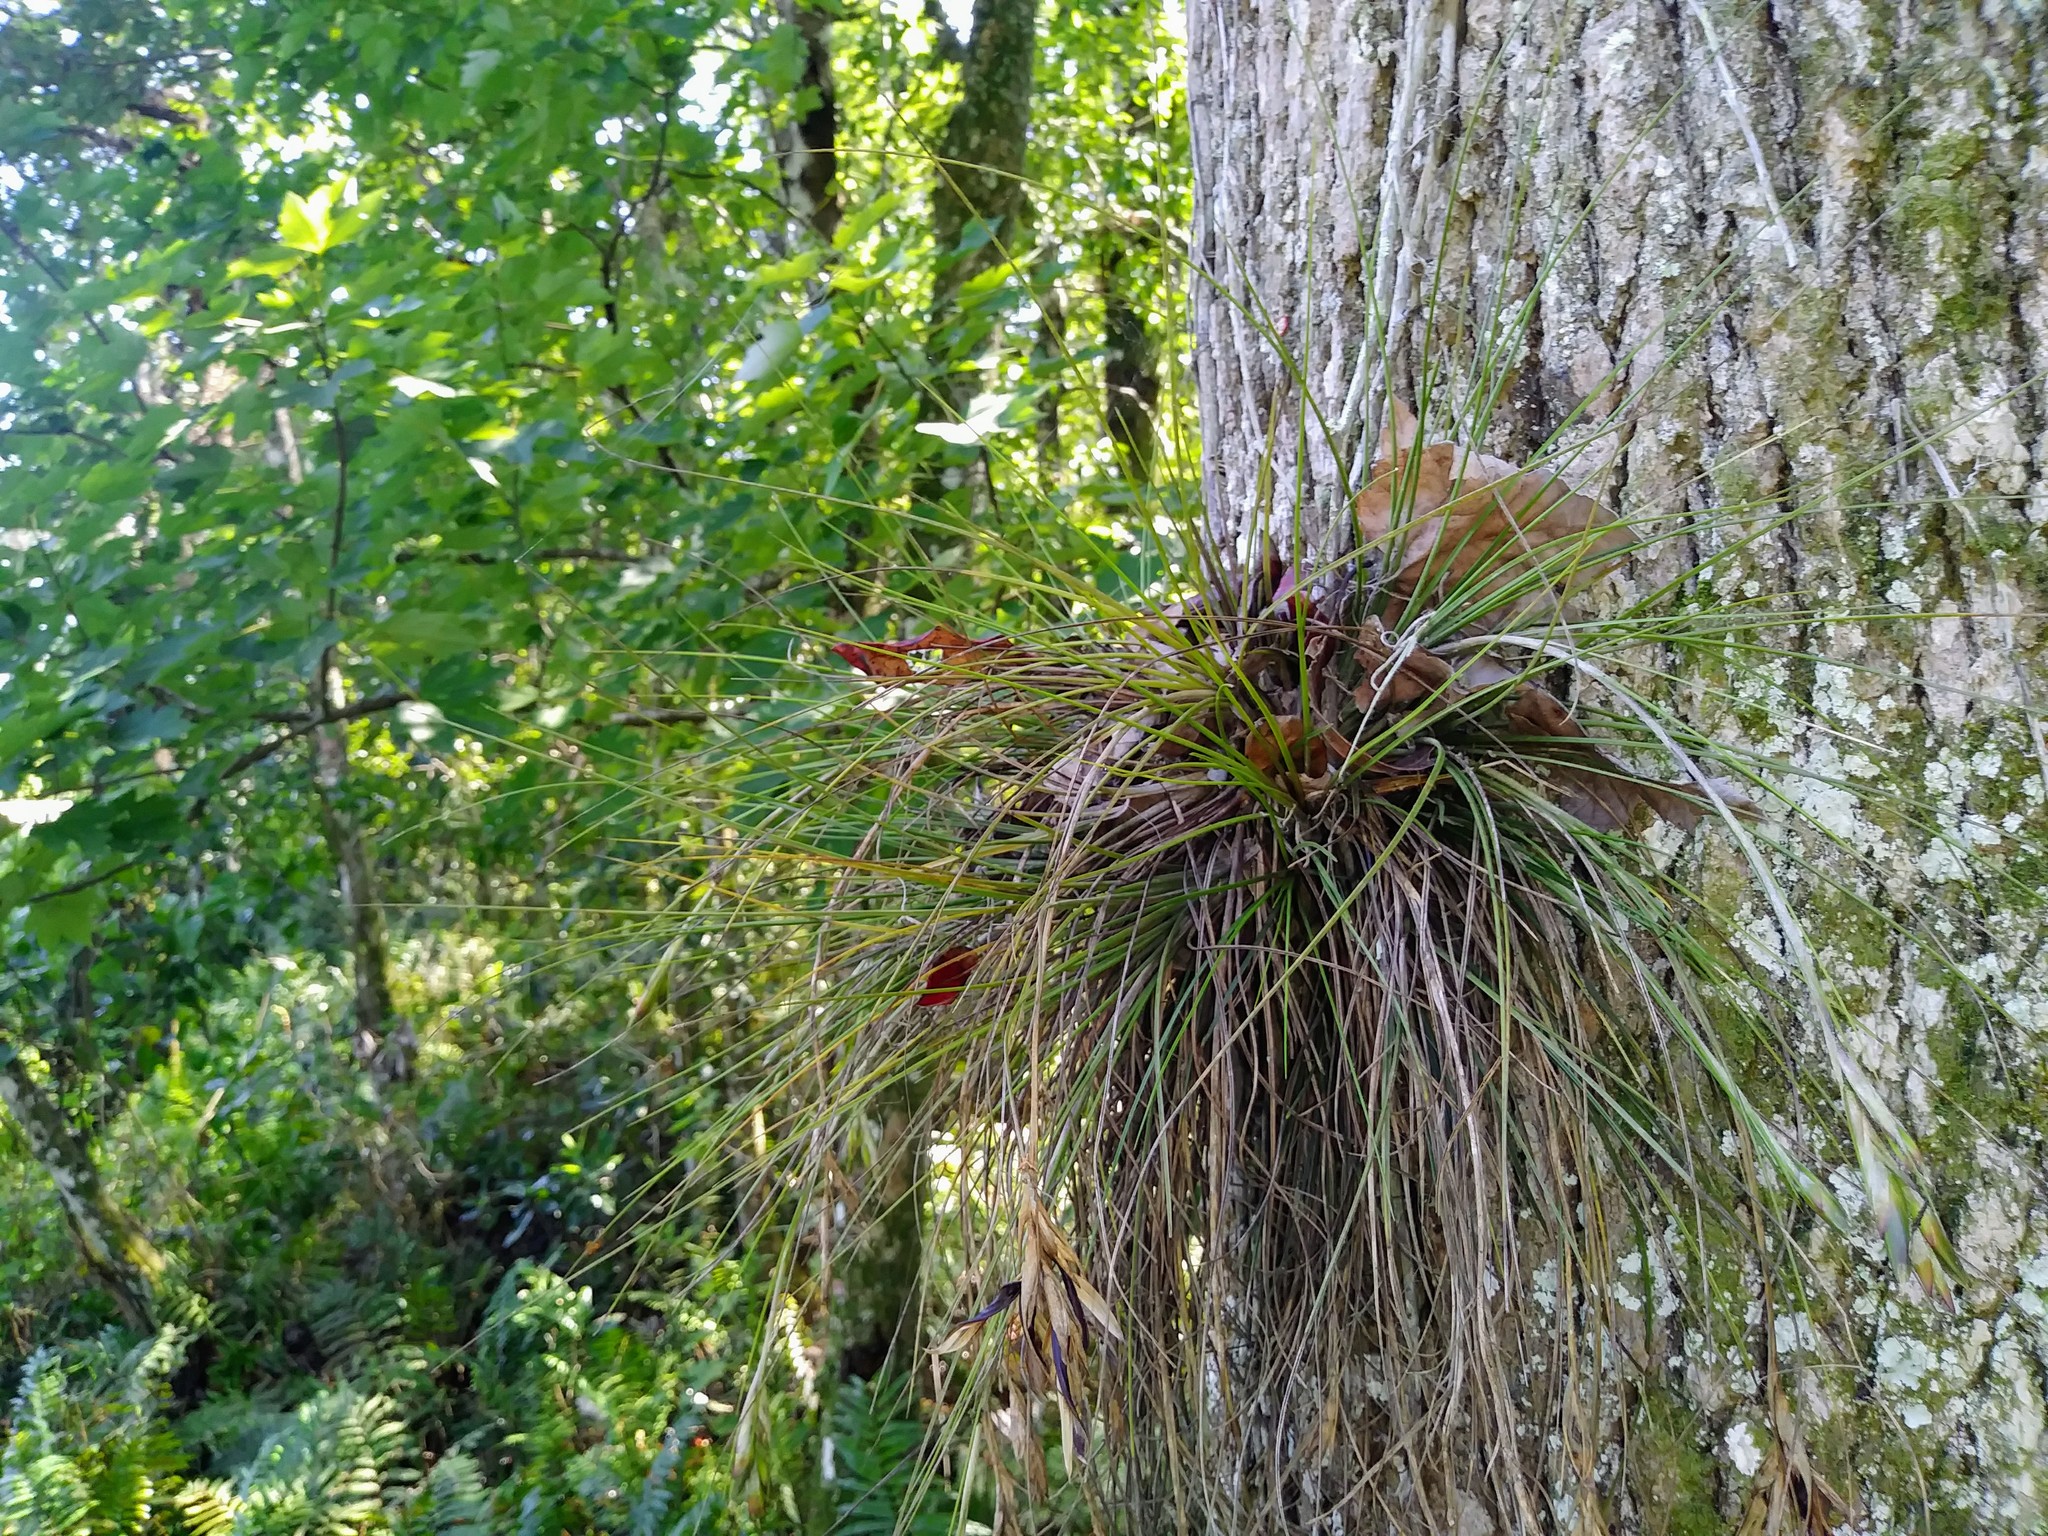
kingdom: Plantae
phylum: Tracheophyta
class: Liliopsida
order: Poales
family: Bromeliaceae
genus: Tillandsia
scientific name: Tillandsia setacea
